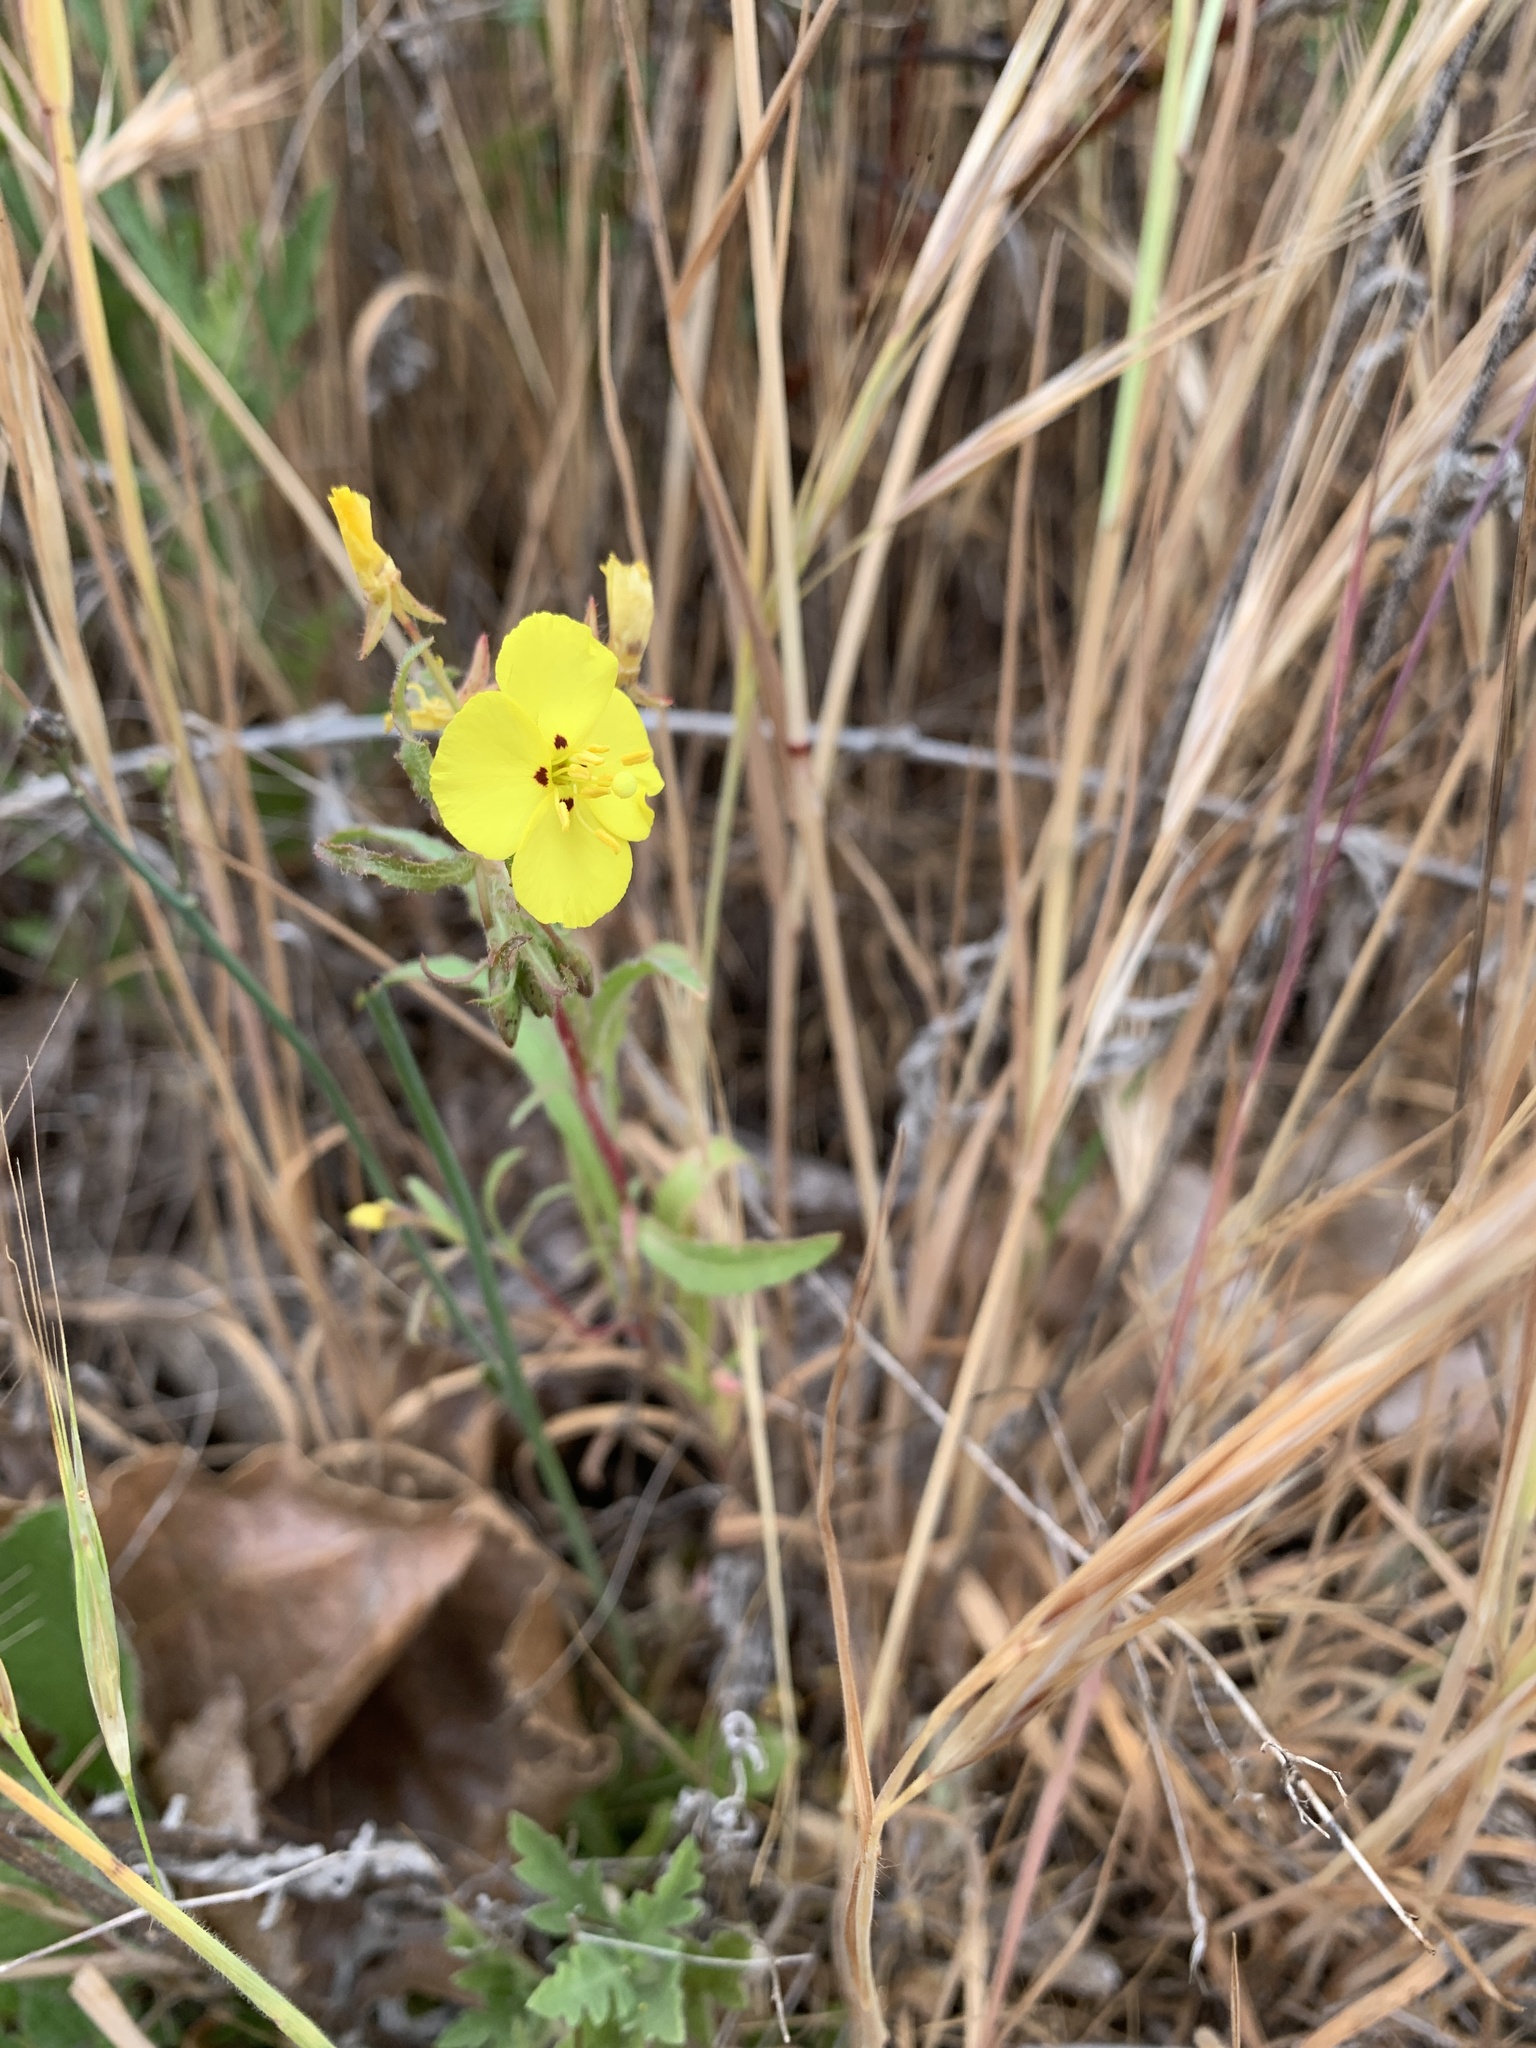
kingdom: Plantae
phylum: Tracheophyta
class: Magnoliopsida
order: Myrtales
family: Onagraceae
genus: Camissoniopsis
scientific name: Camissoniopsis bistorta
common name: Southern suncup
